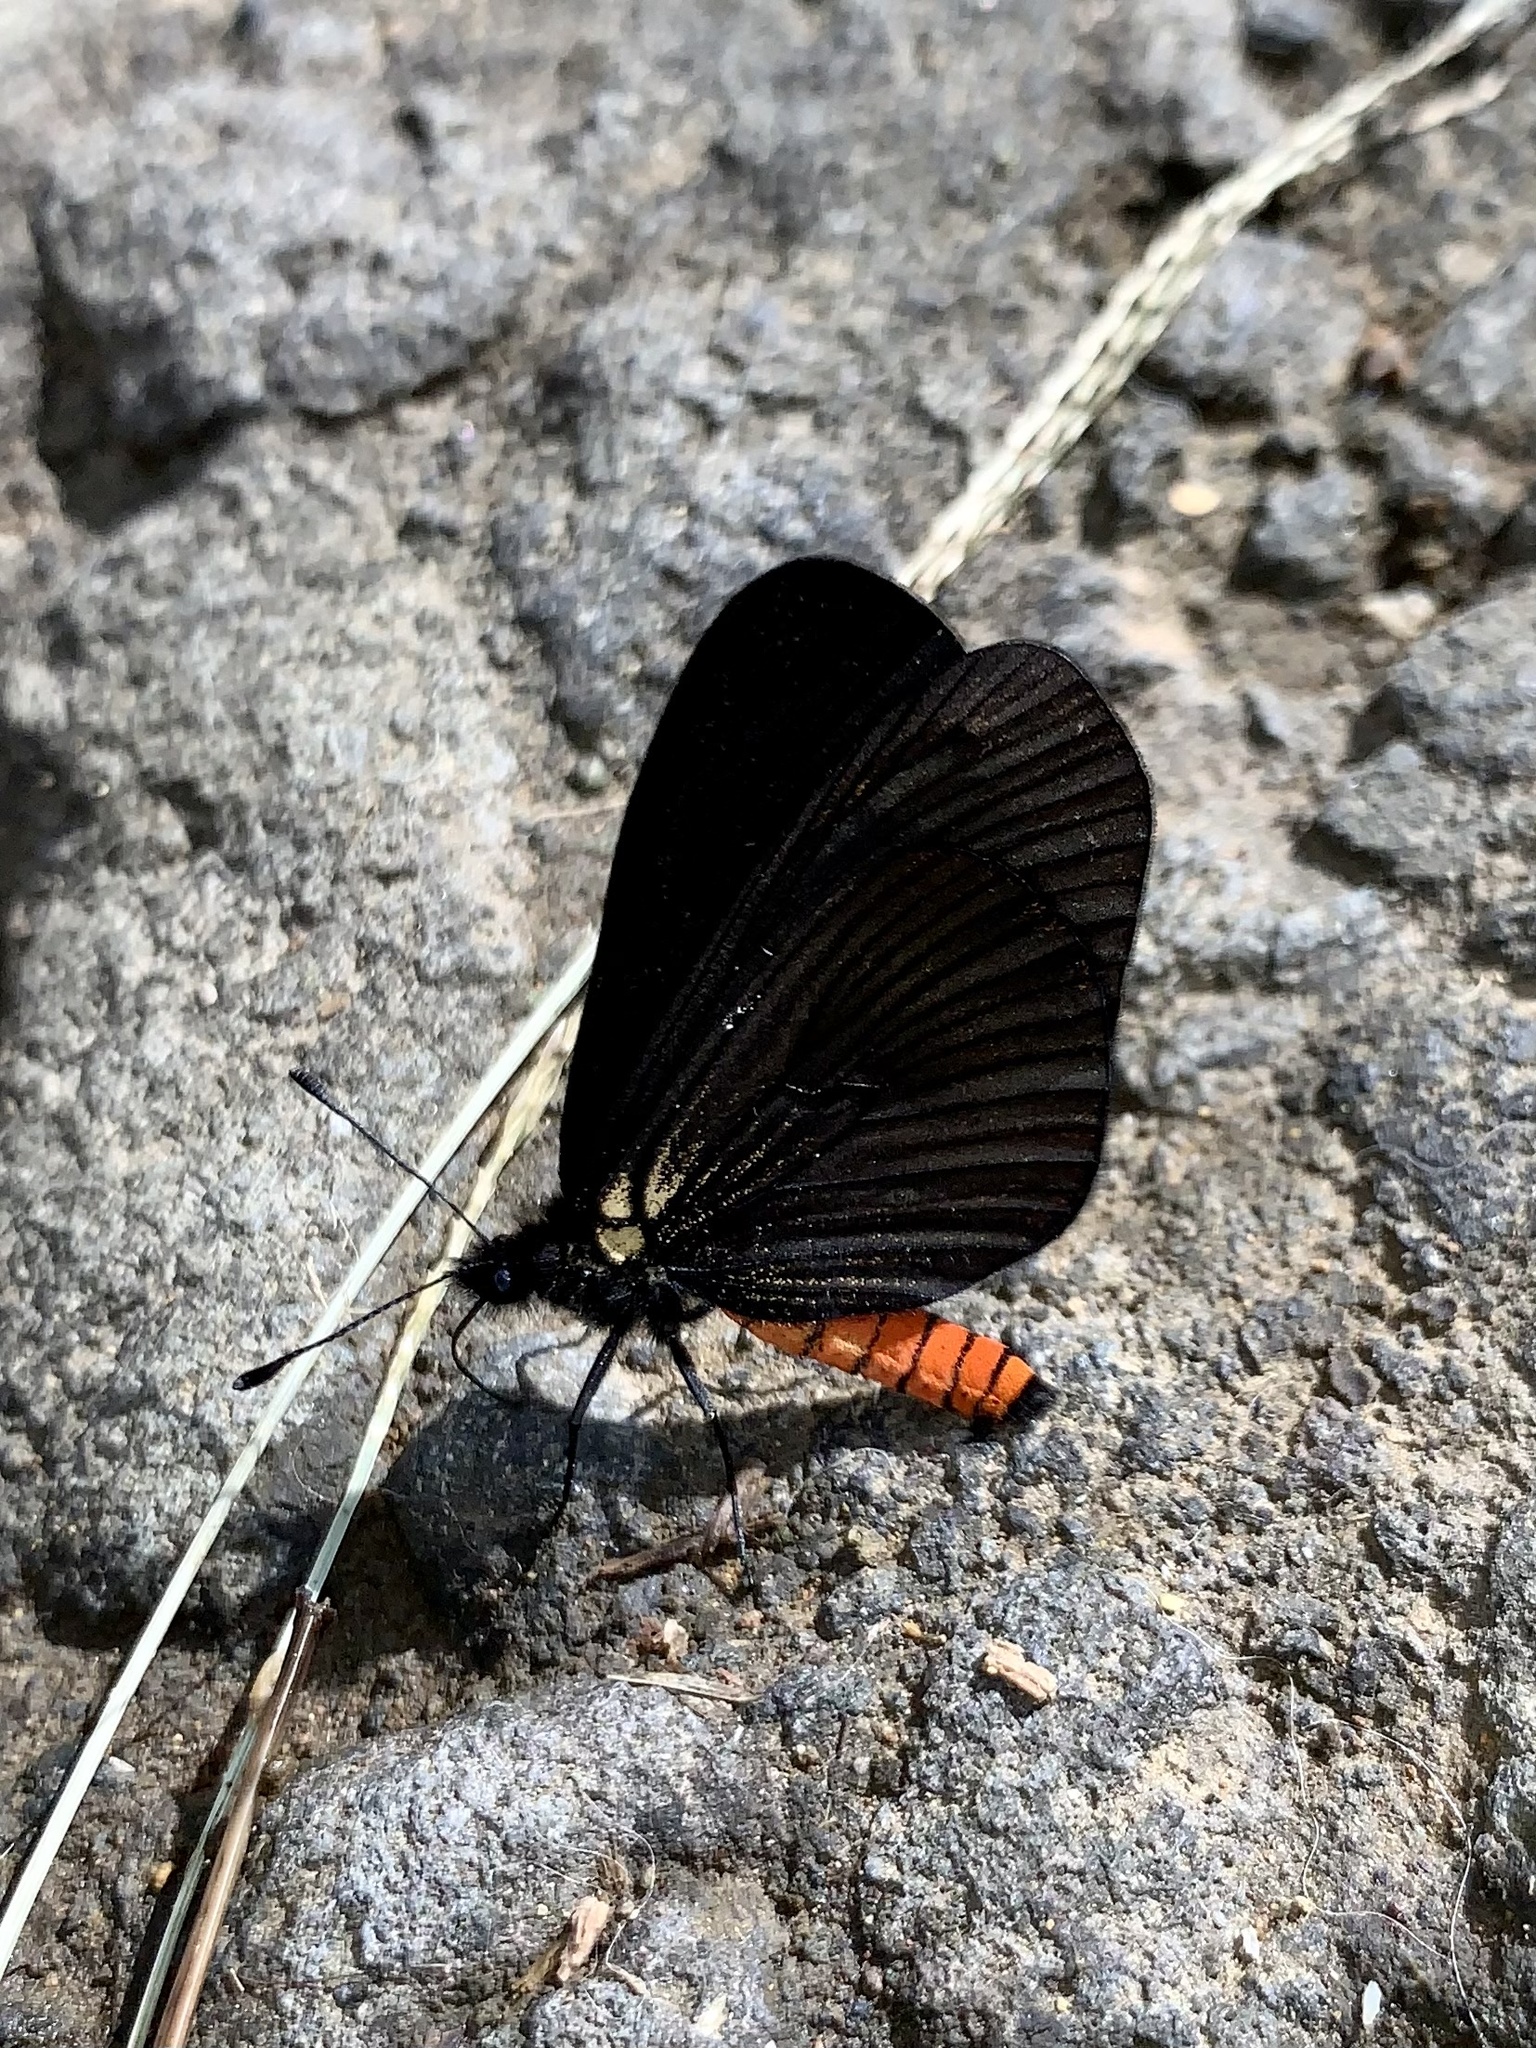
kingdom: Animalia
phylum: Arthropoda
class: Insecta
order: Lepidoptera
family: Nymphalidae
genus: Actinote
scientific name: Actinote neleus
